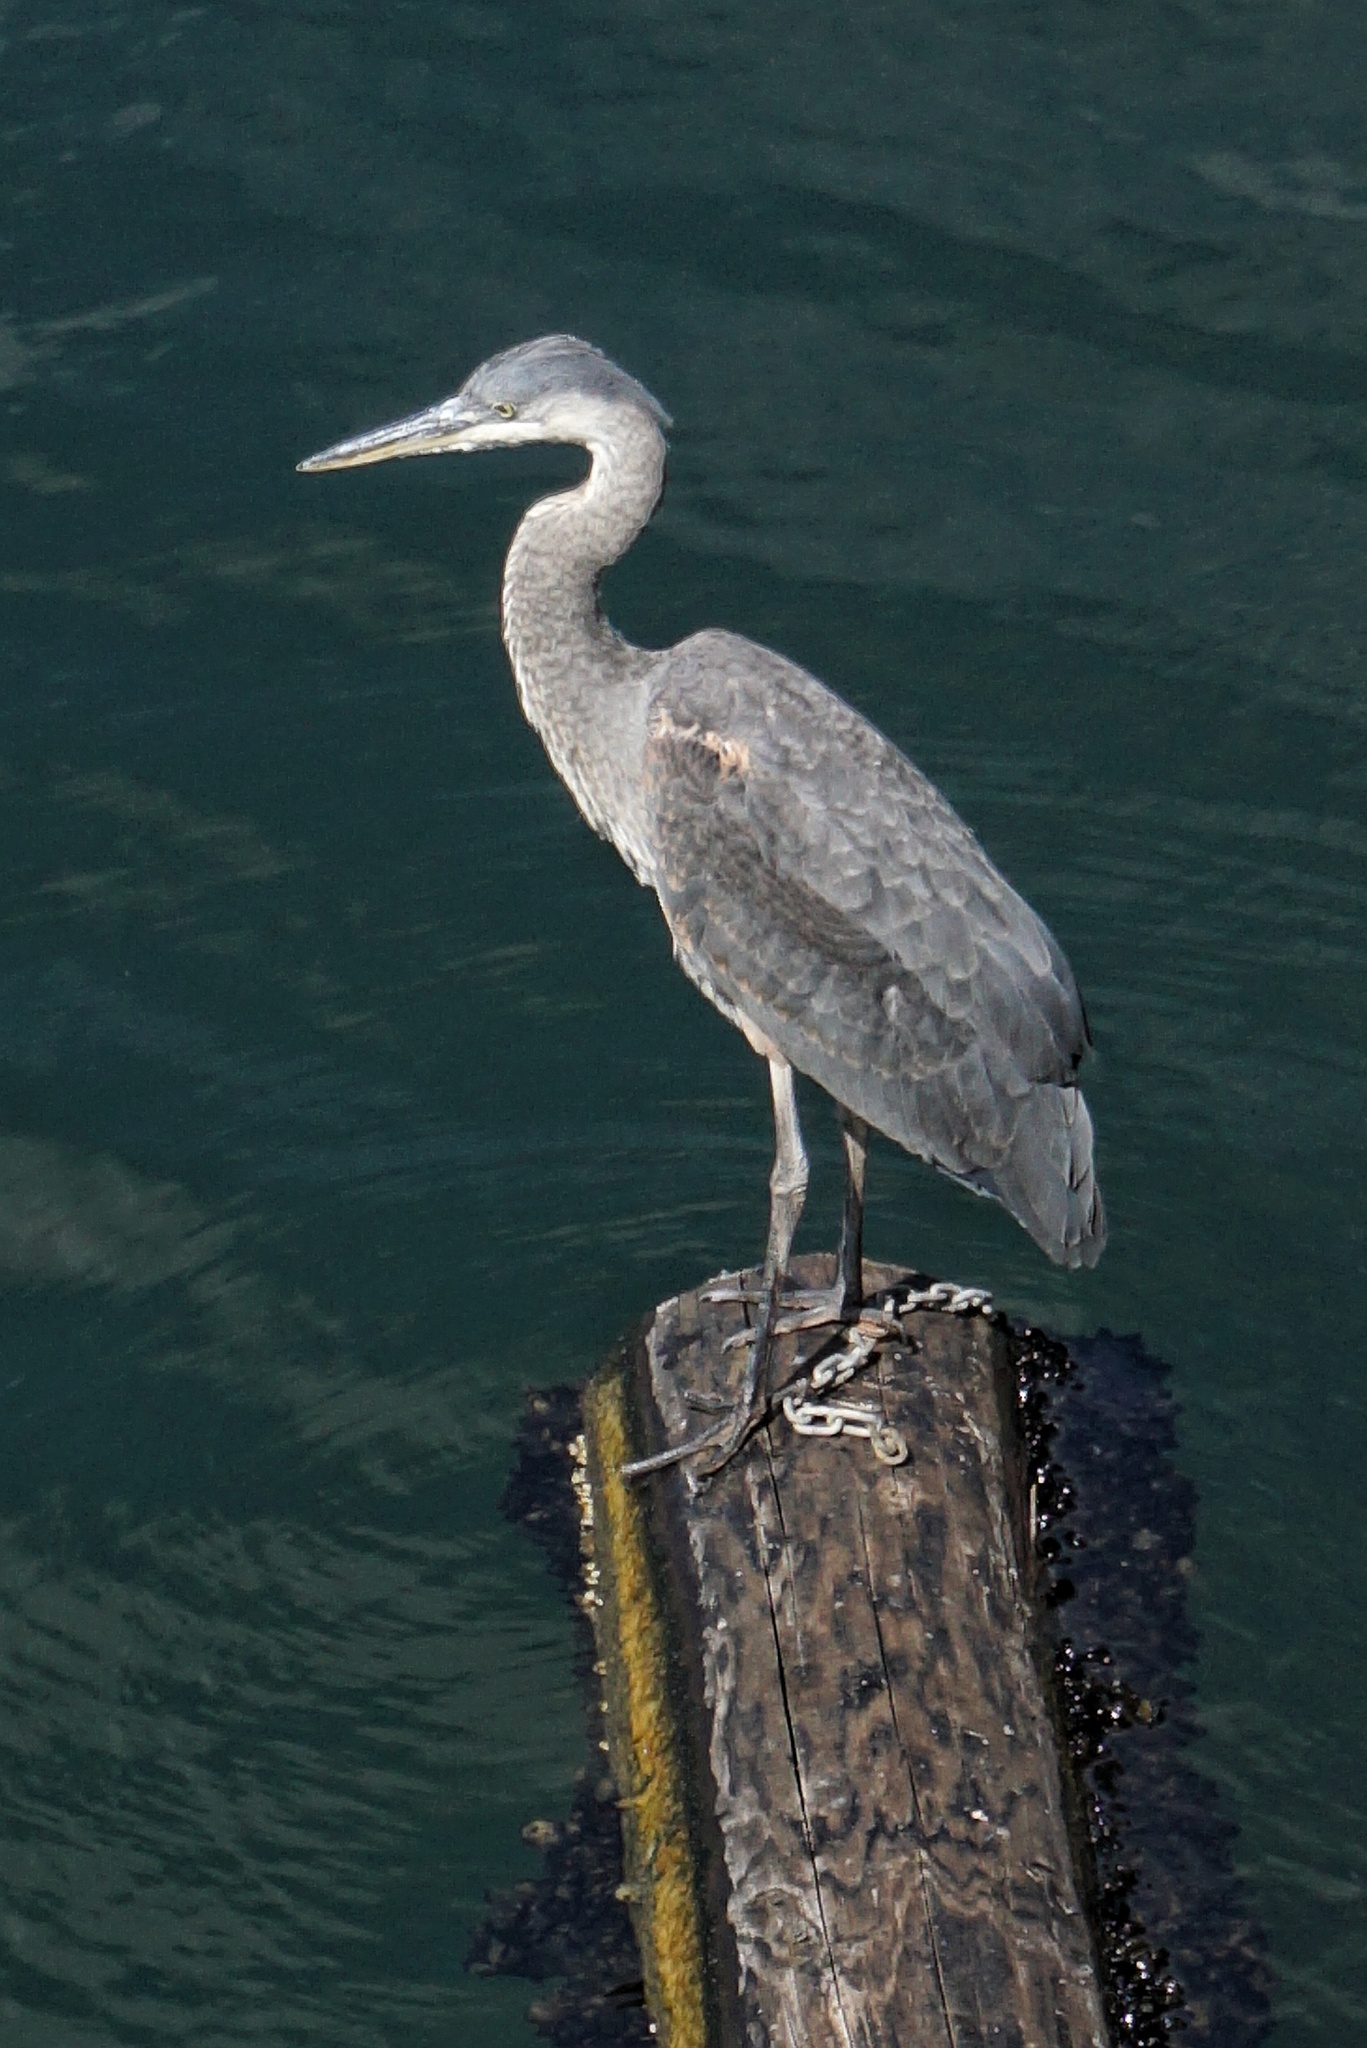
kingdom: Animalia
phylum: Chordata
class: Aves
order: Pelecaniformes
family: Ardeidae
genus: Ardea
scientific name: Ardea herodias
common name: Great blue heron
